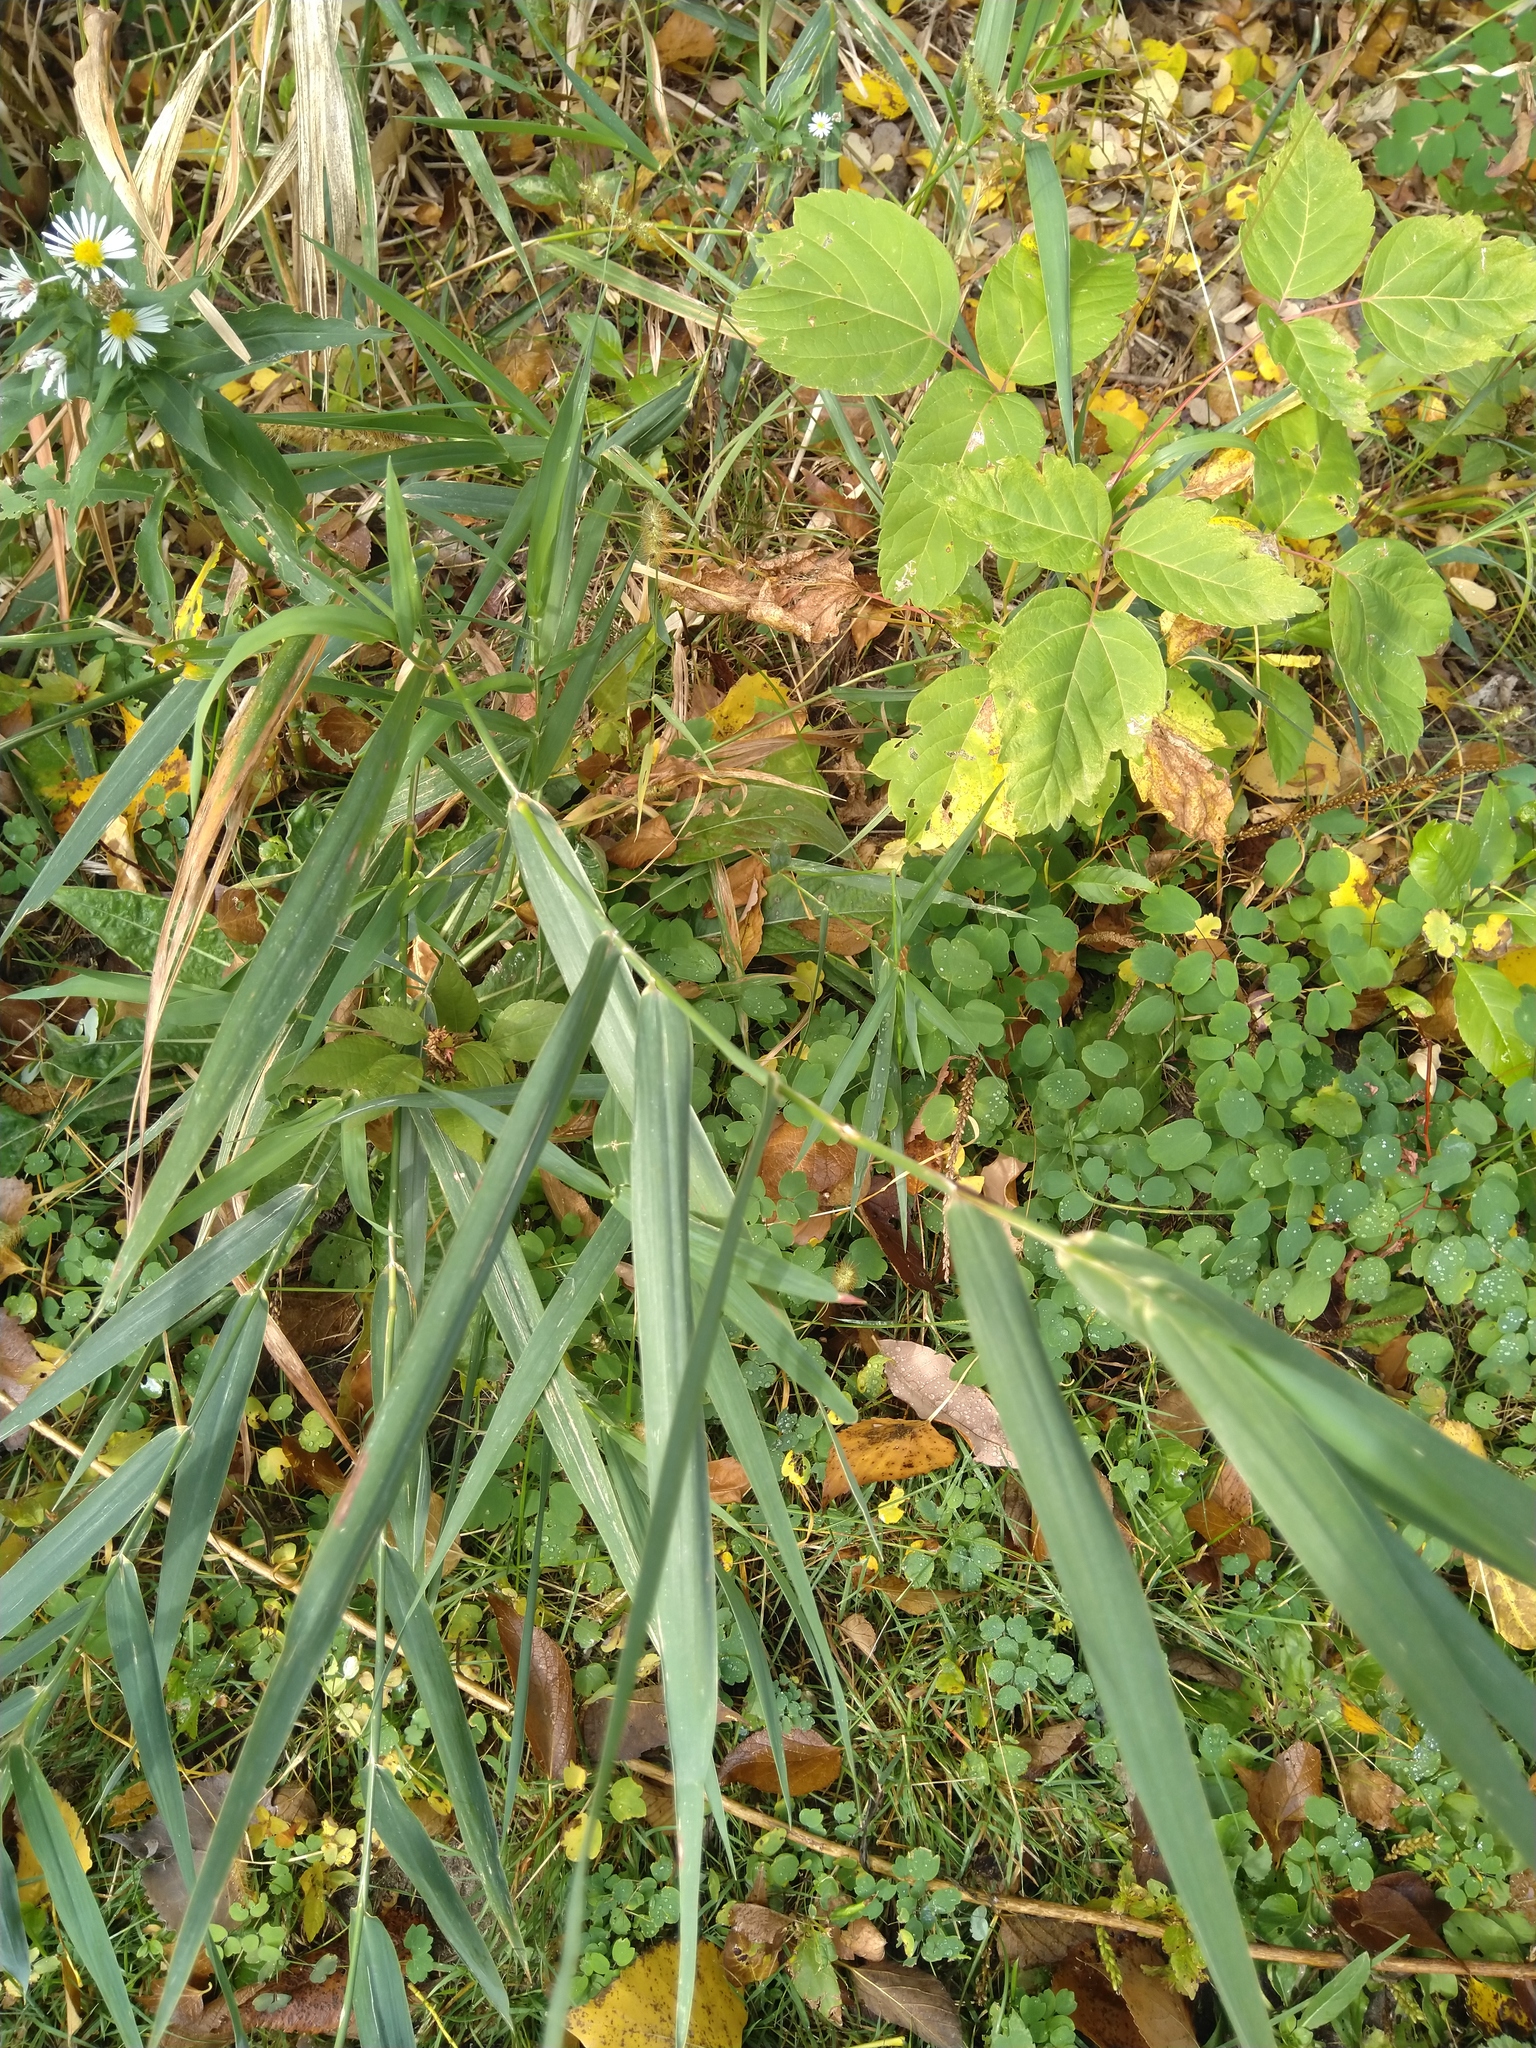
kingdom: Plantae
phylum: Tracheophyta
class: Liliopsida
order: Poales
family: Poaceae
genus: Phalaris
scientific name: Phalaris arundinacea
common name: Reed canary-grass
